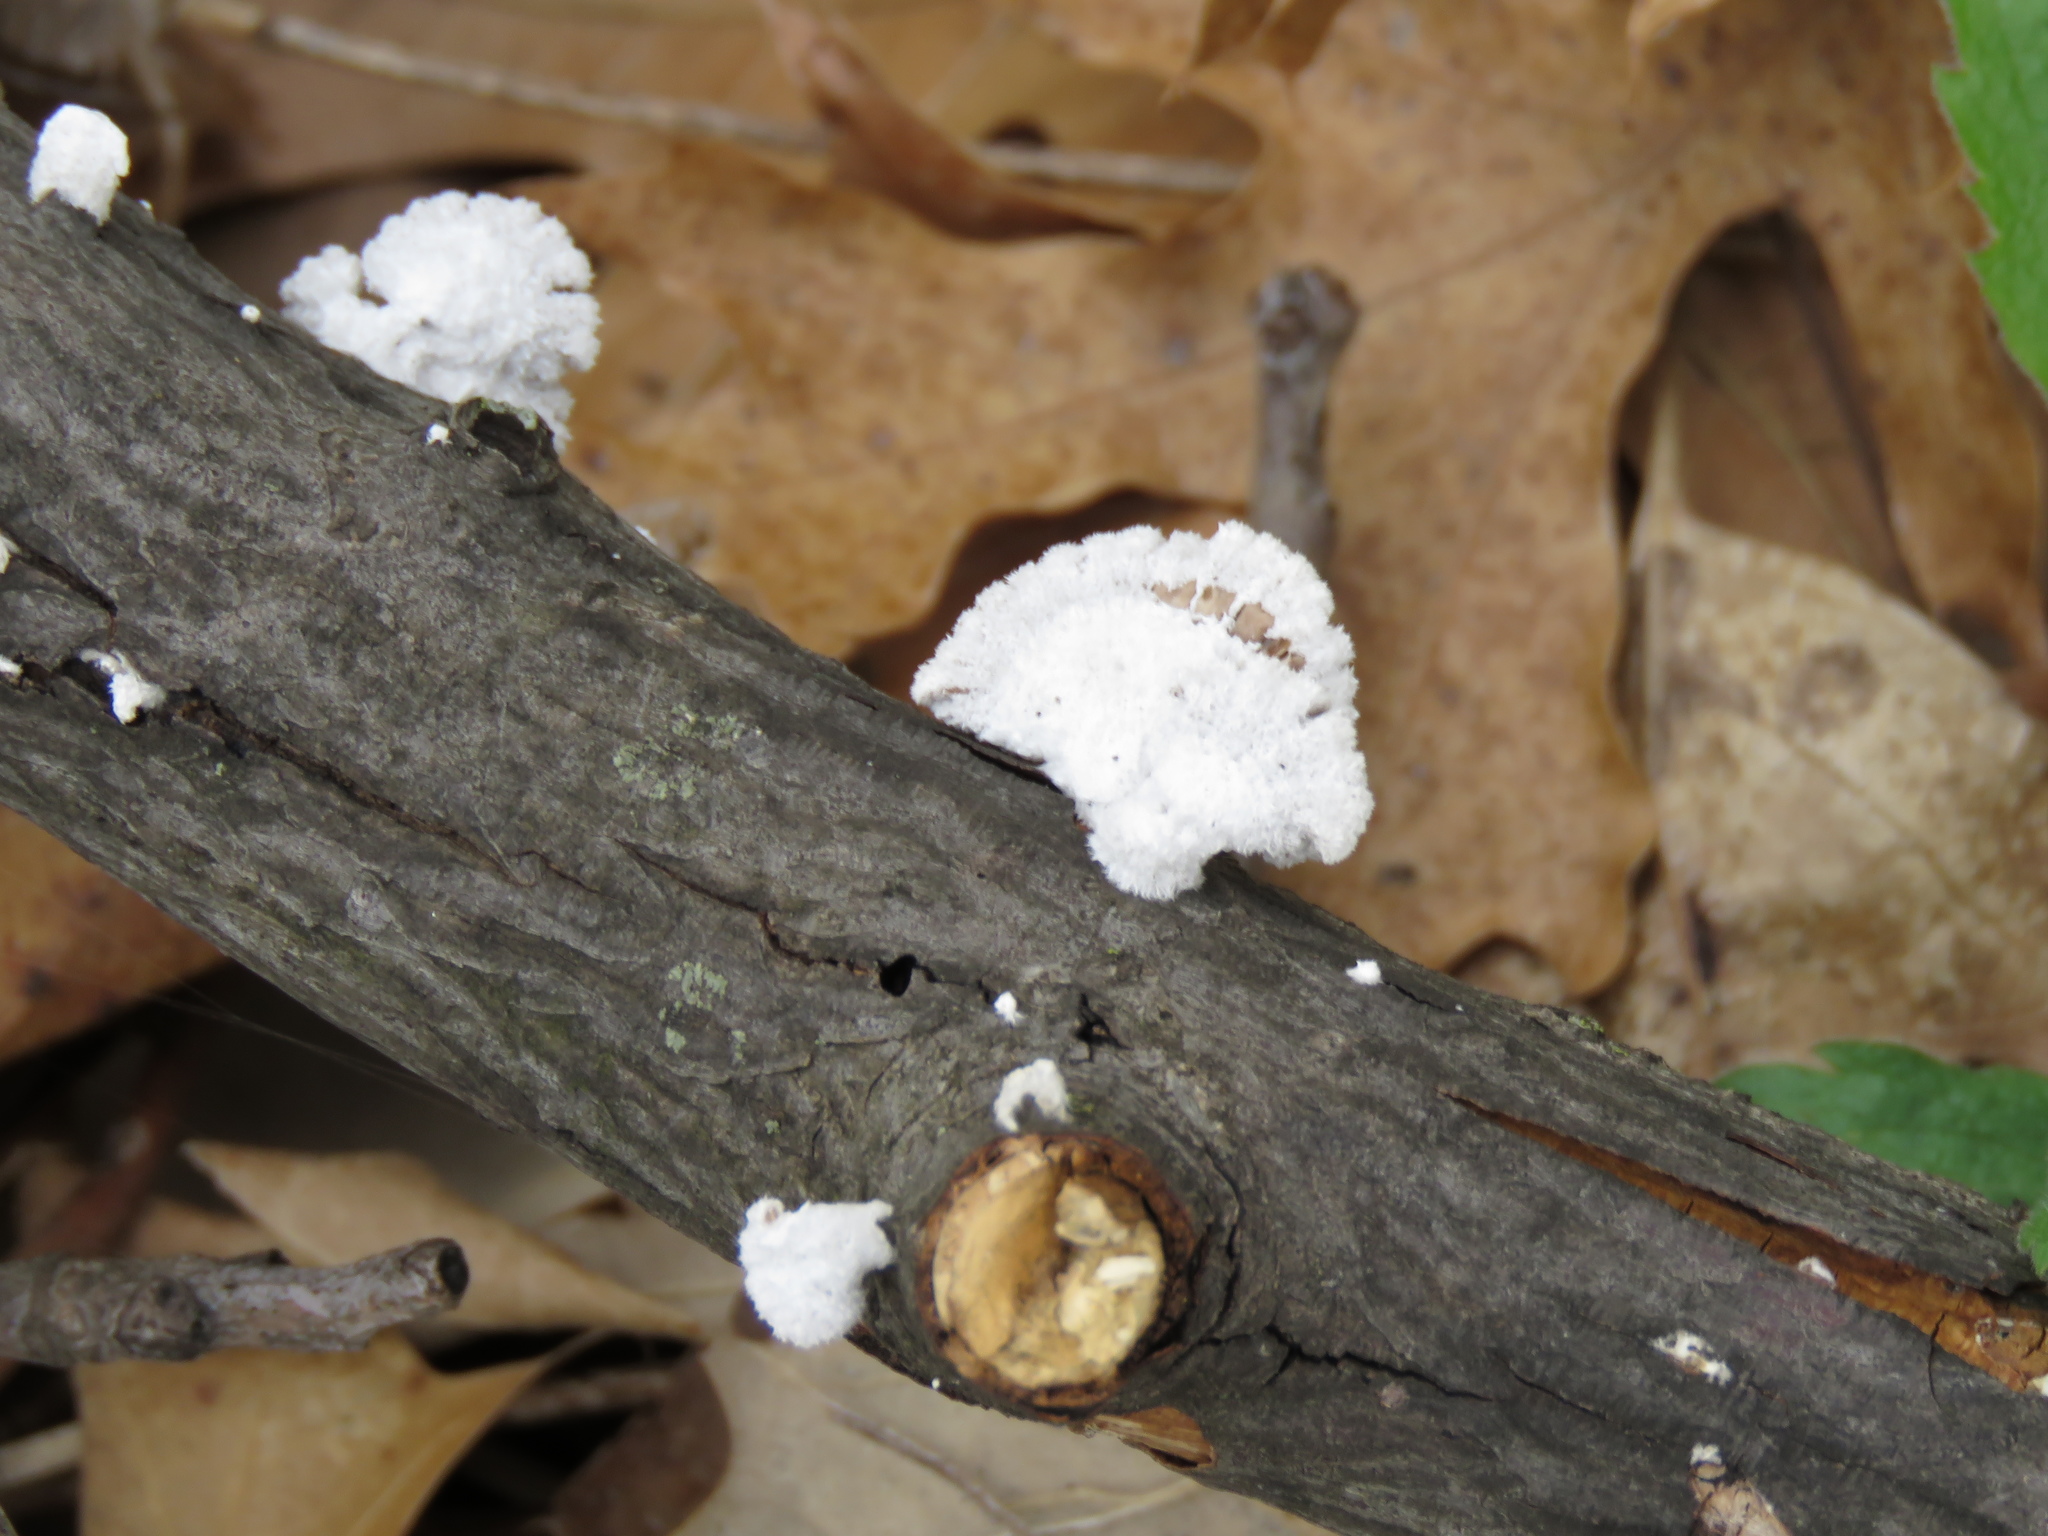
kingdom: Fungi
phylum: Basidiomycota
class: Agaricomycetes
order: Agaricales
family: Schizophyllaceae
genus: Schizophyllum
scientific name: Schizophyllum commune
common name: Common porecrust
